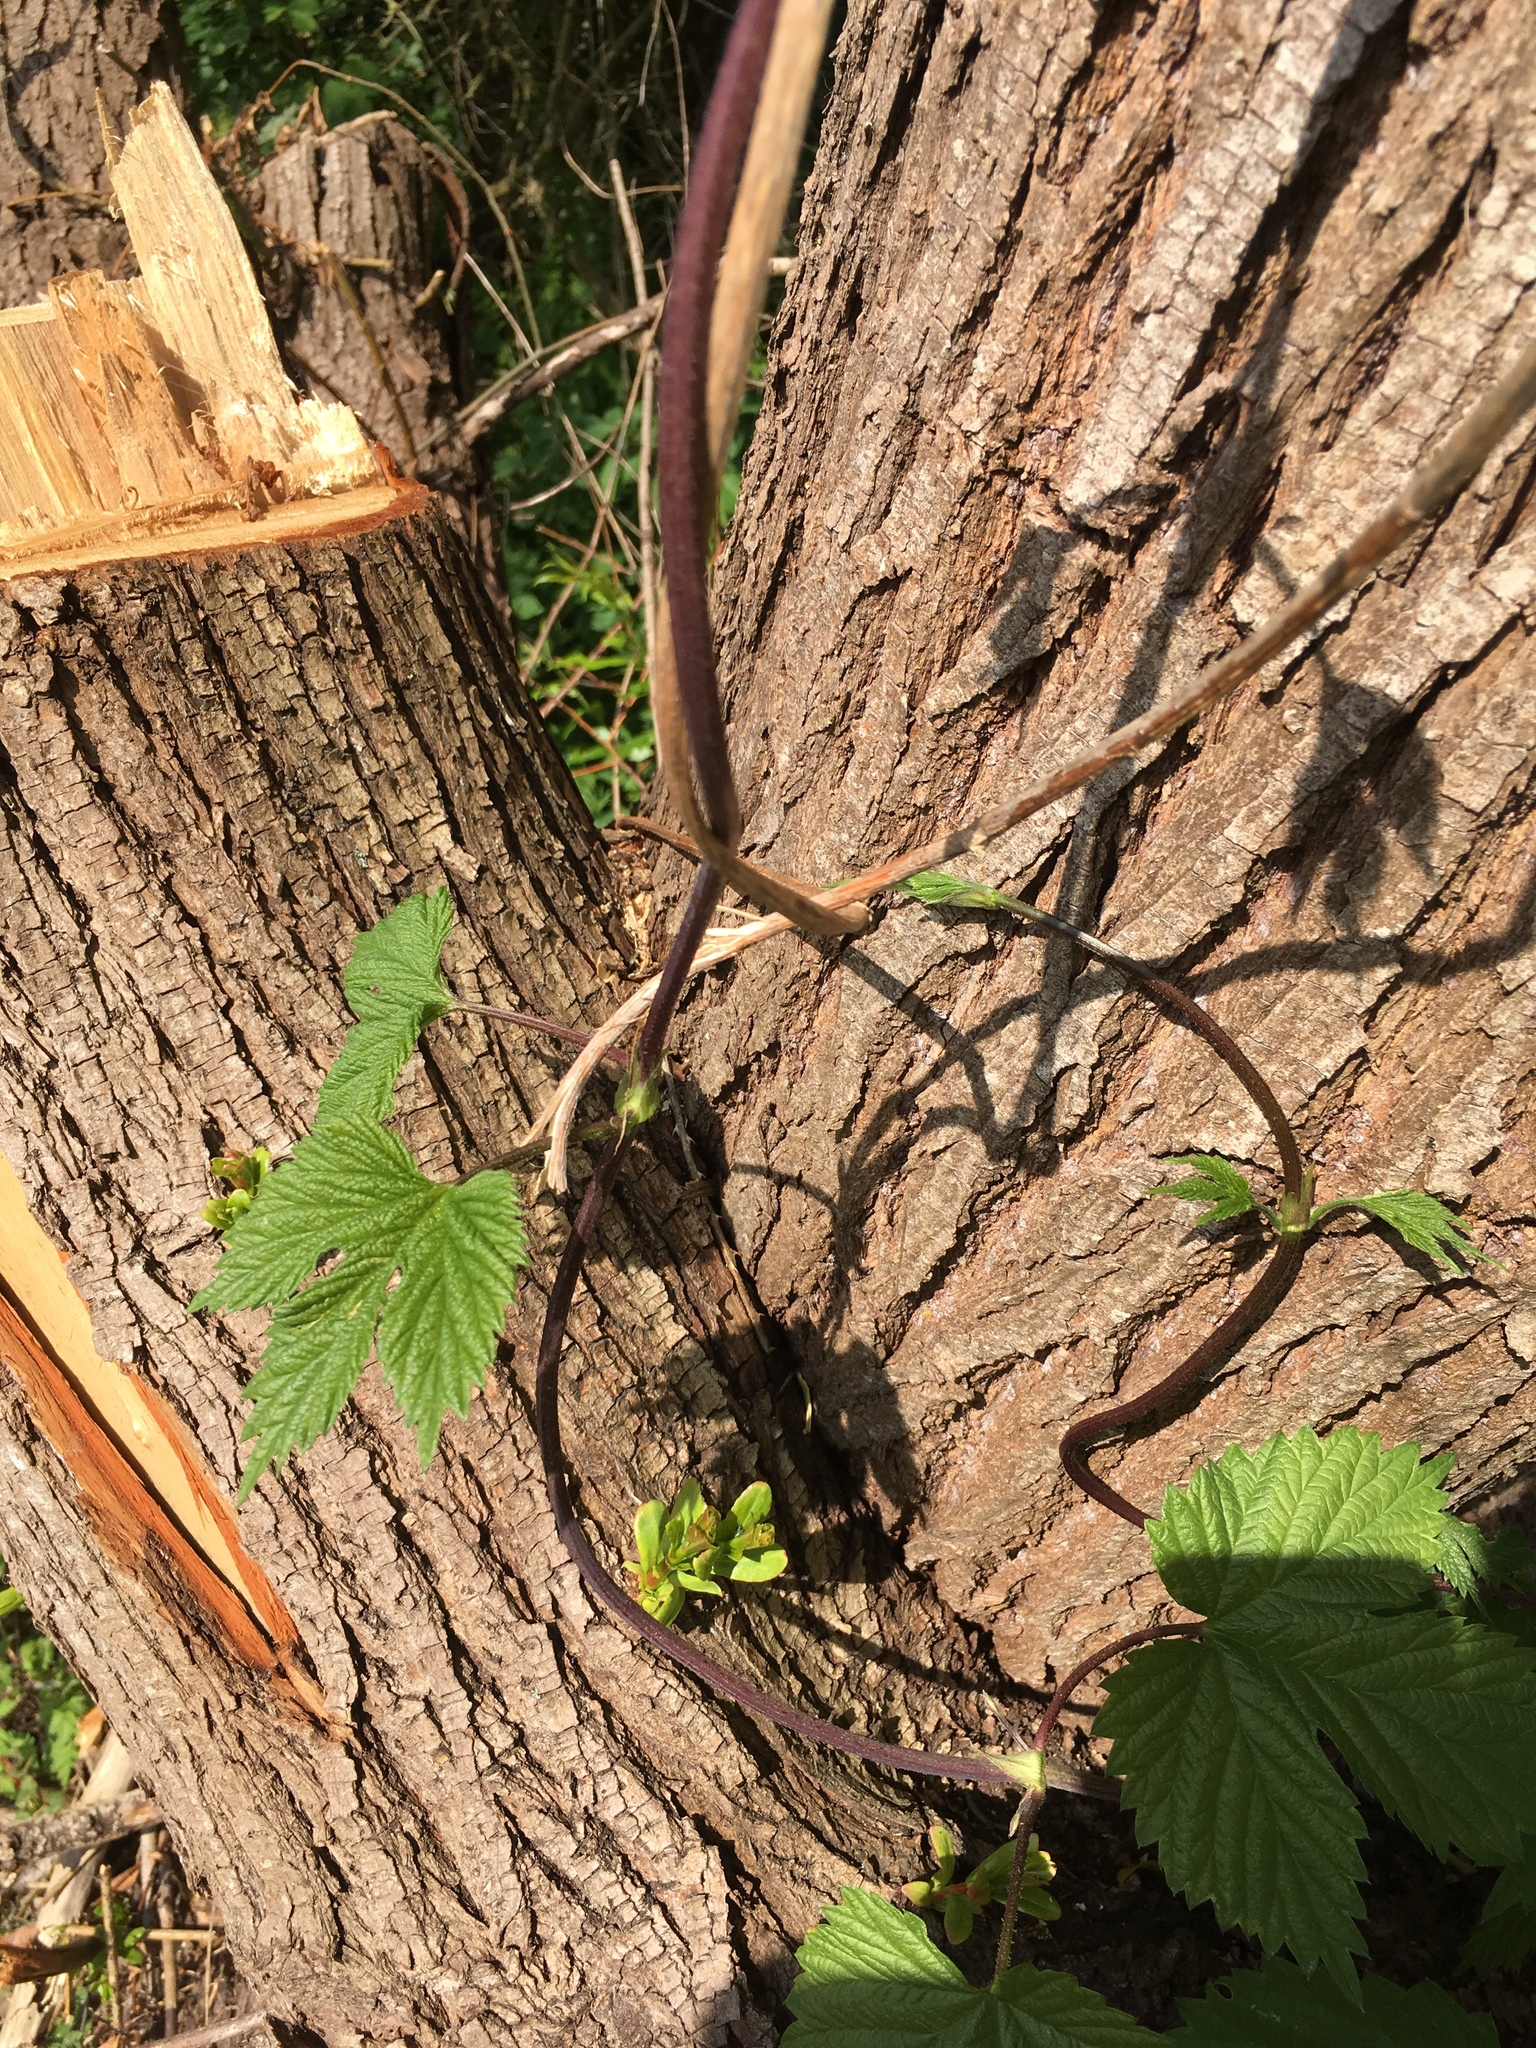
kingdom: Plantae
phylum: Tracheophyta
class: Magnoliopsida
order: Rosales
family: Cannabaceae
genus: Humulus
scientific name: Humulus lupulus
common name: Hop
